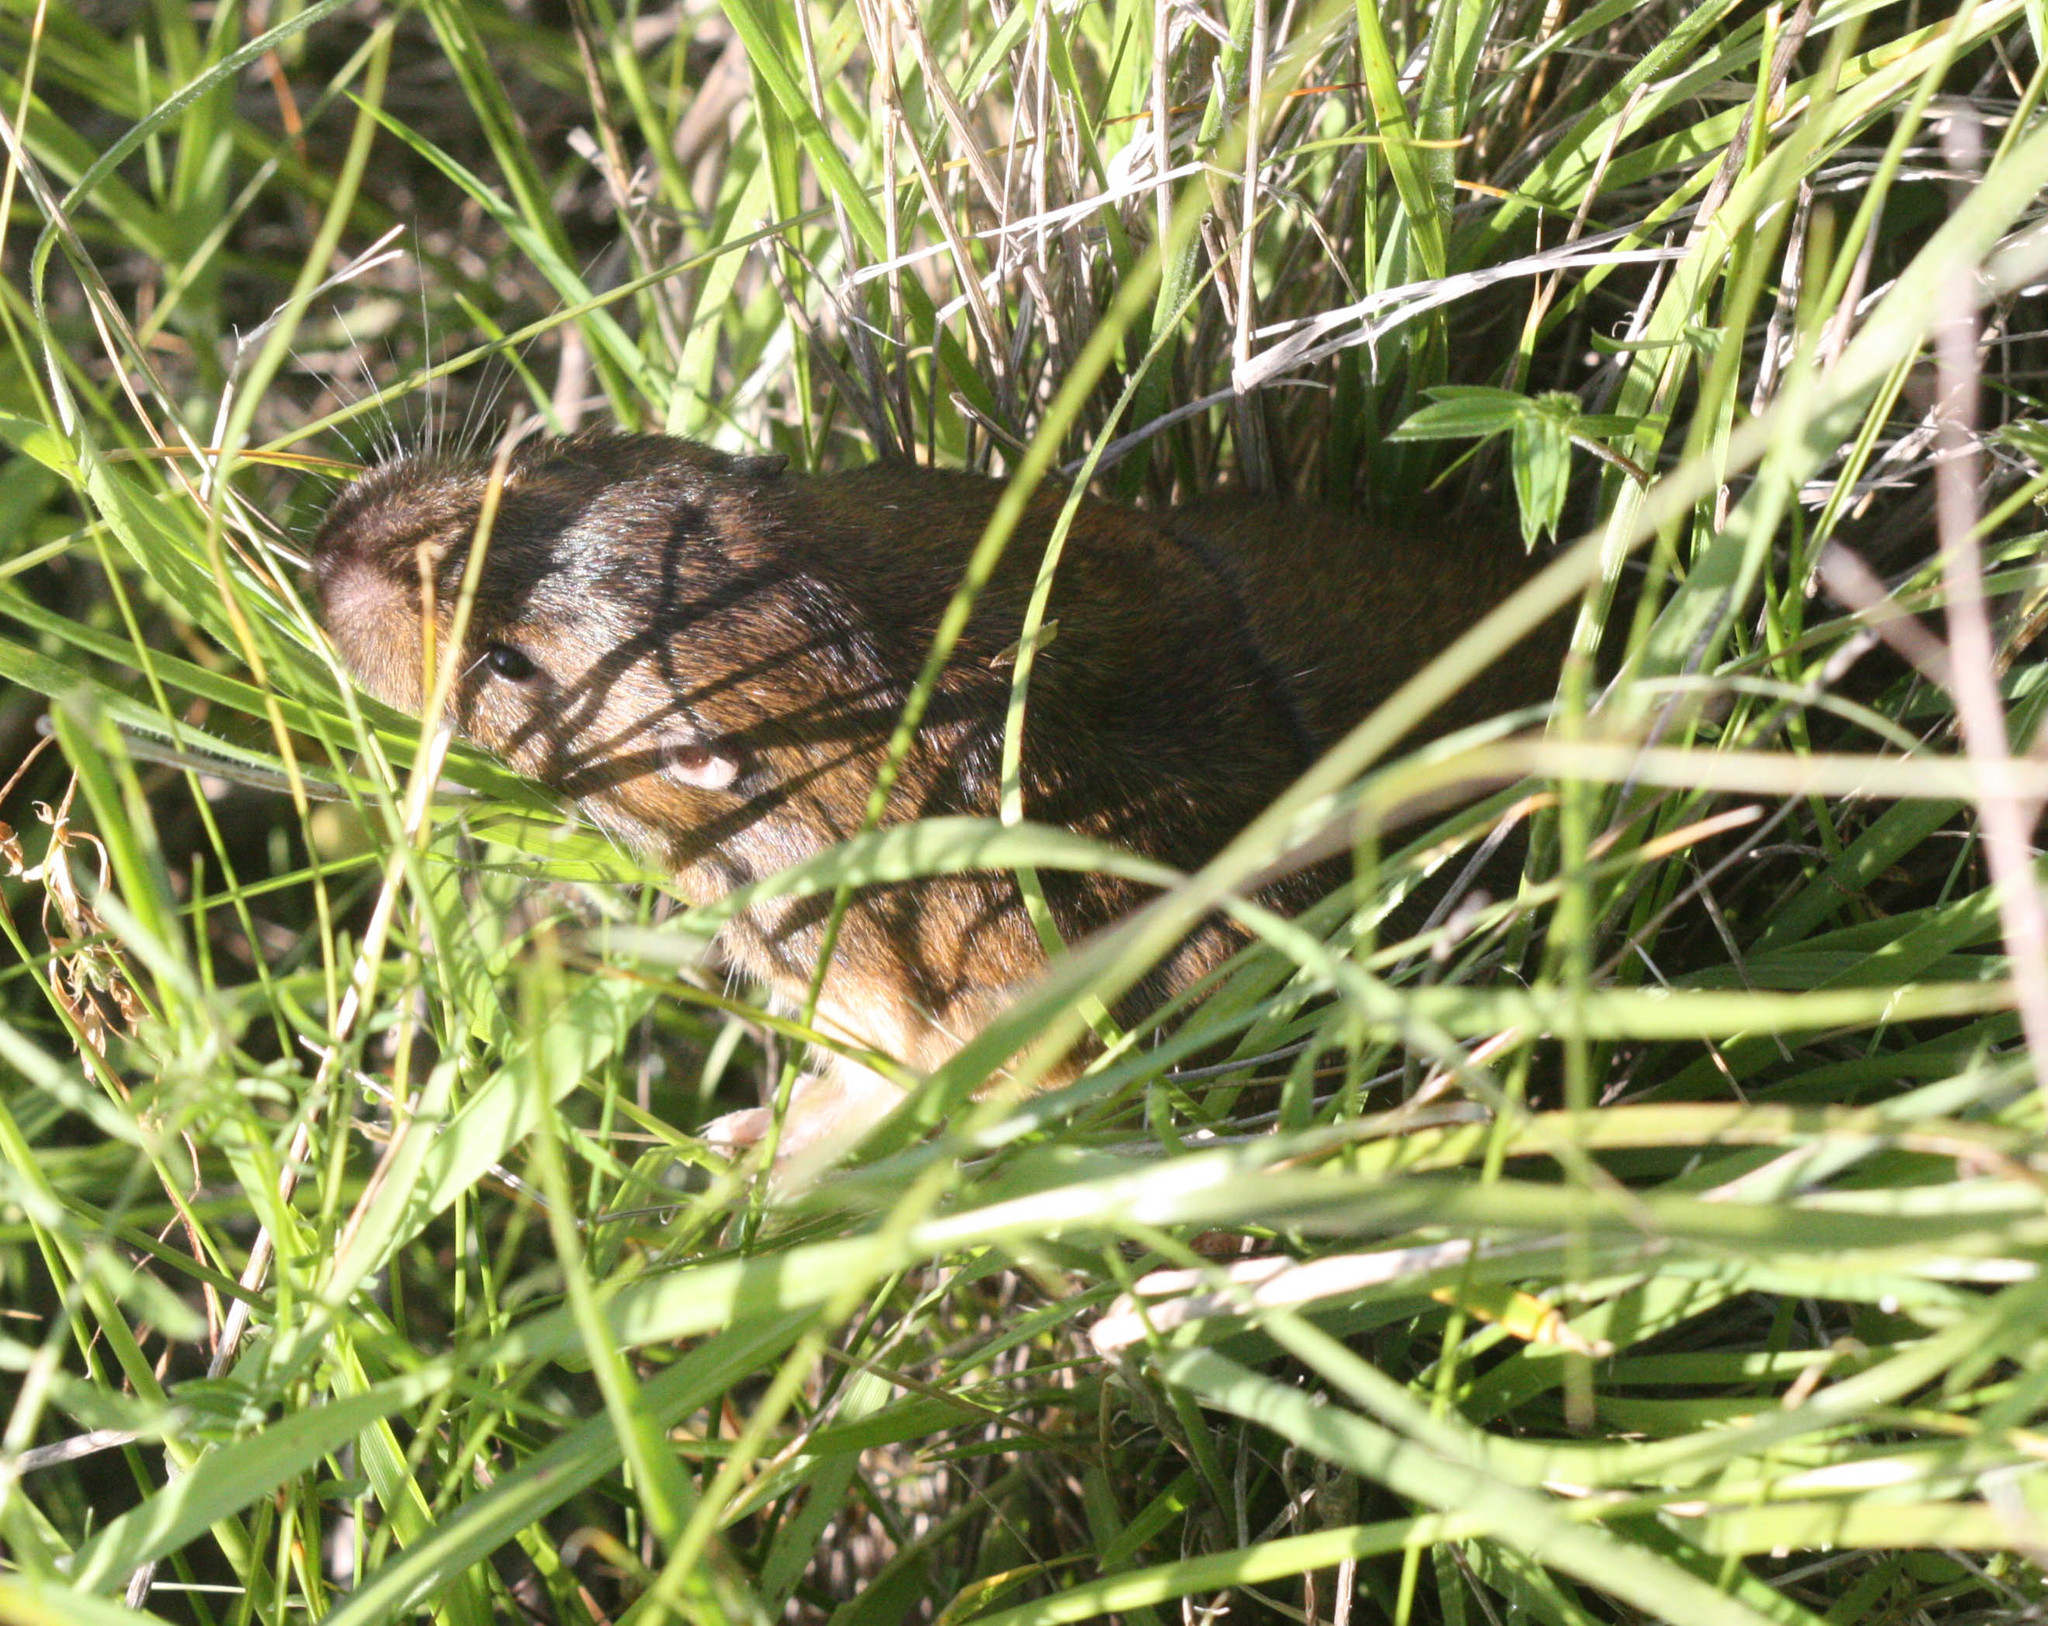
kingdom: Animalia
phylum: Chordata
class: Mammalia
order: Rodentia
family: Geomyidae
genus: Thomomys
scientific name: Thomomys bottae
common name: Botta's pocket gopher
